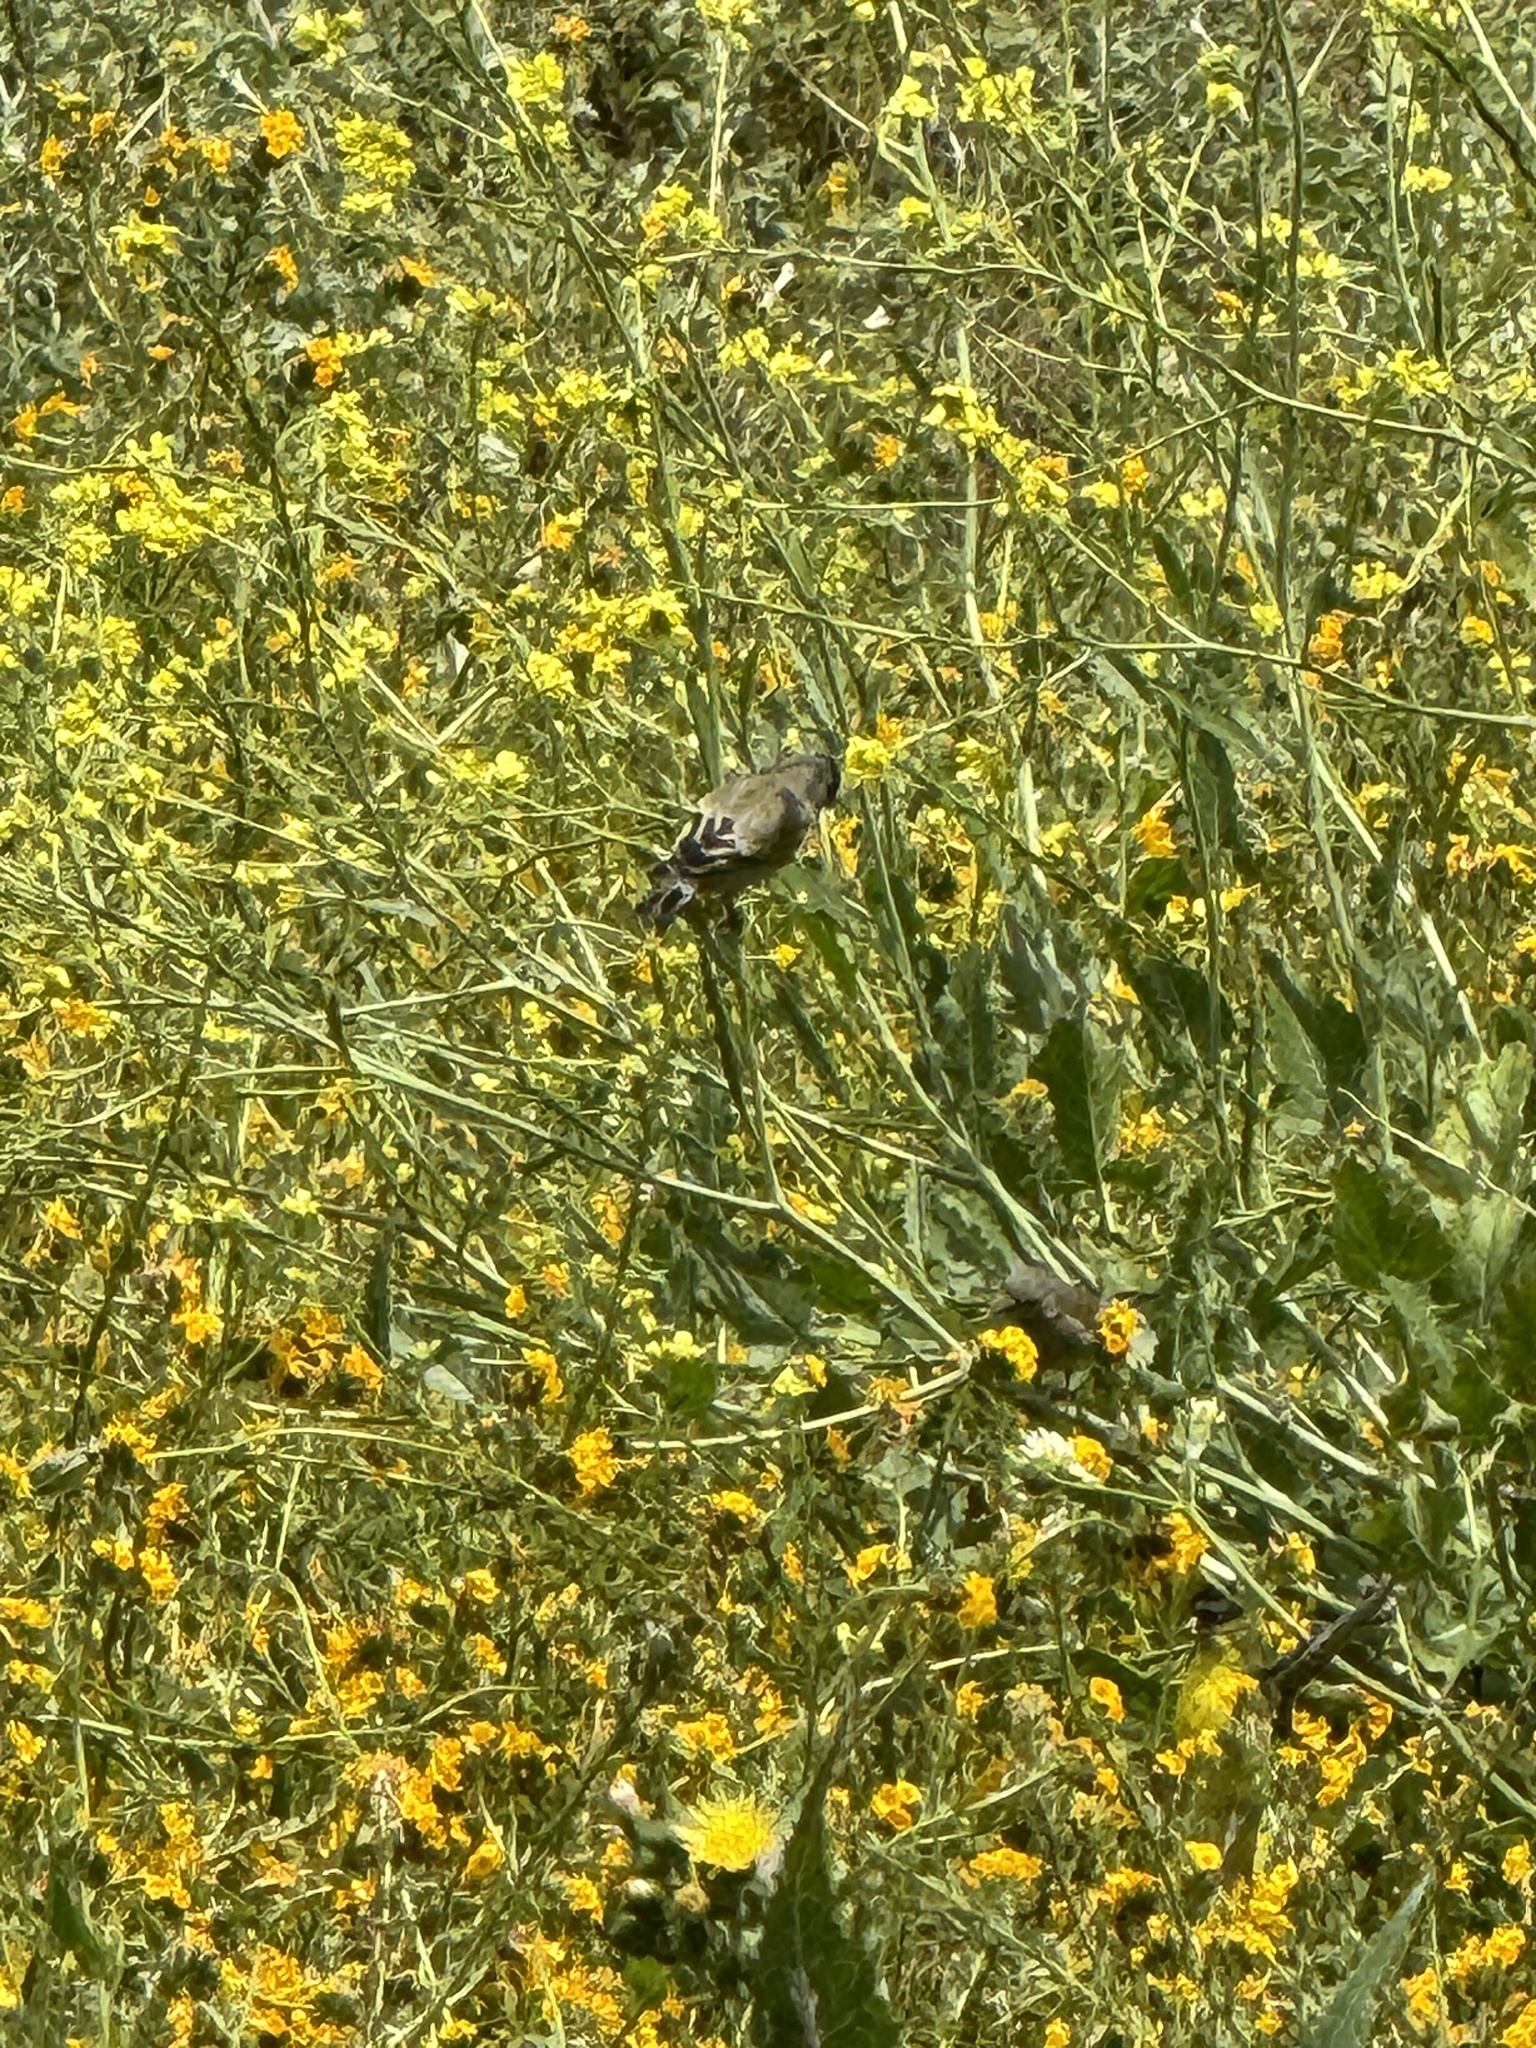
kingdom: Animalia
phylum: Chordata
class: Aves
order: Passeriformes
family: Fringillidae
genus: Spinus
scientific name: Spinus lawrencei
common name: Lawrence's goldfinch
